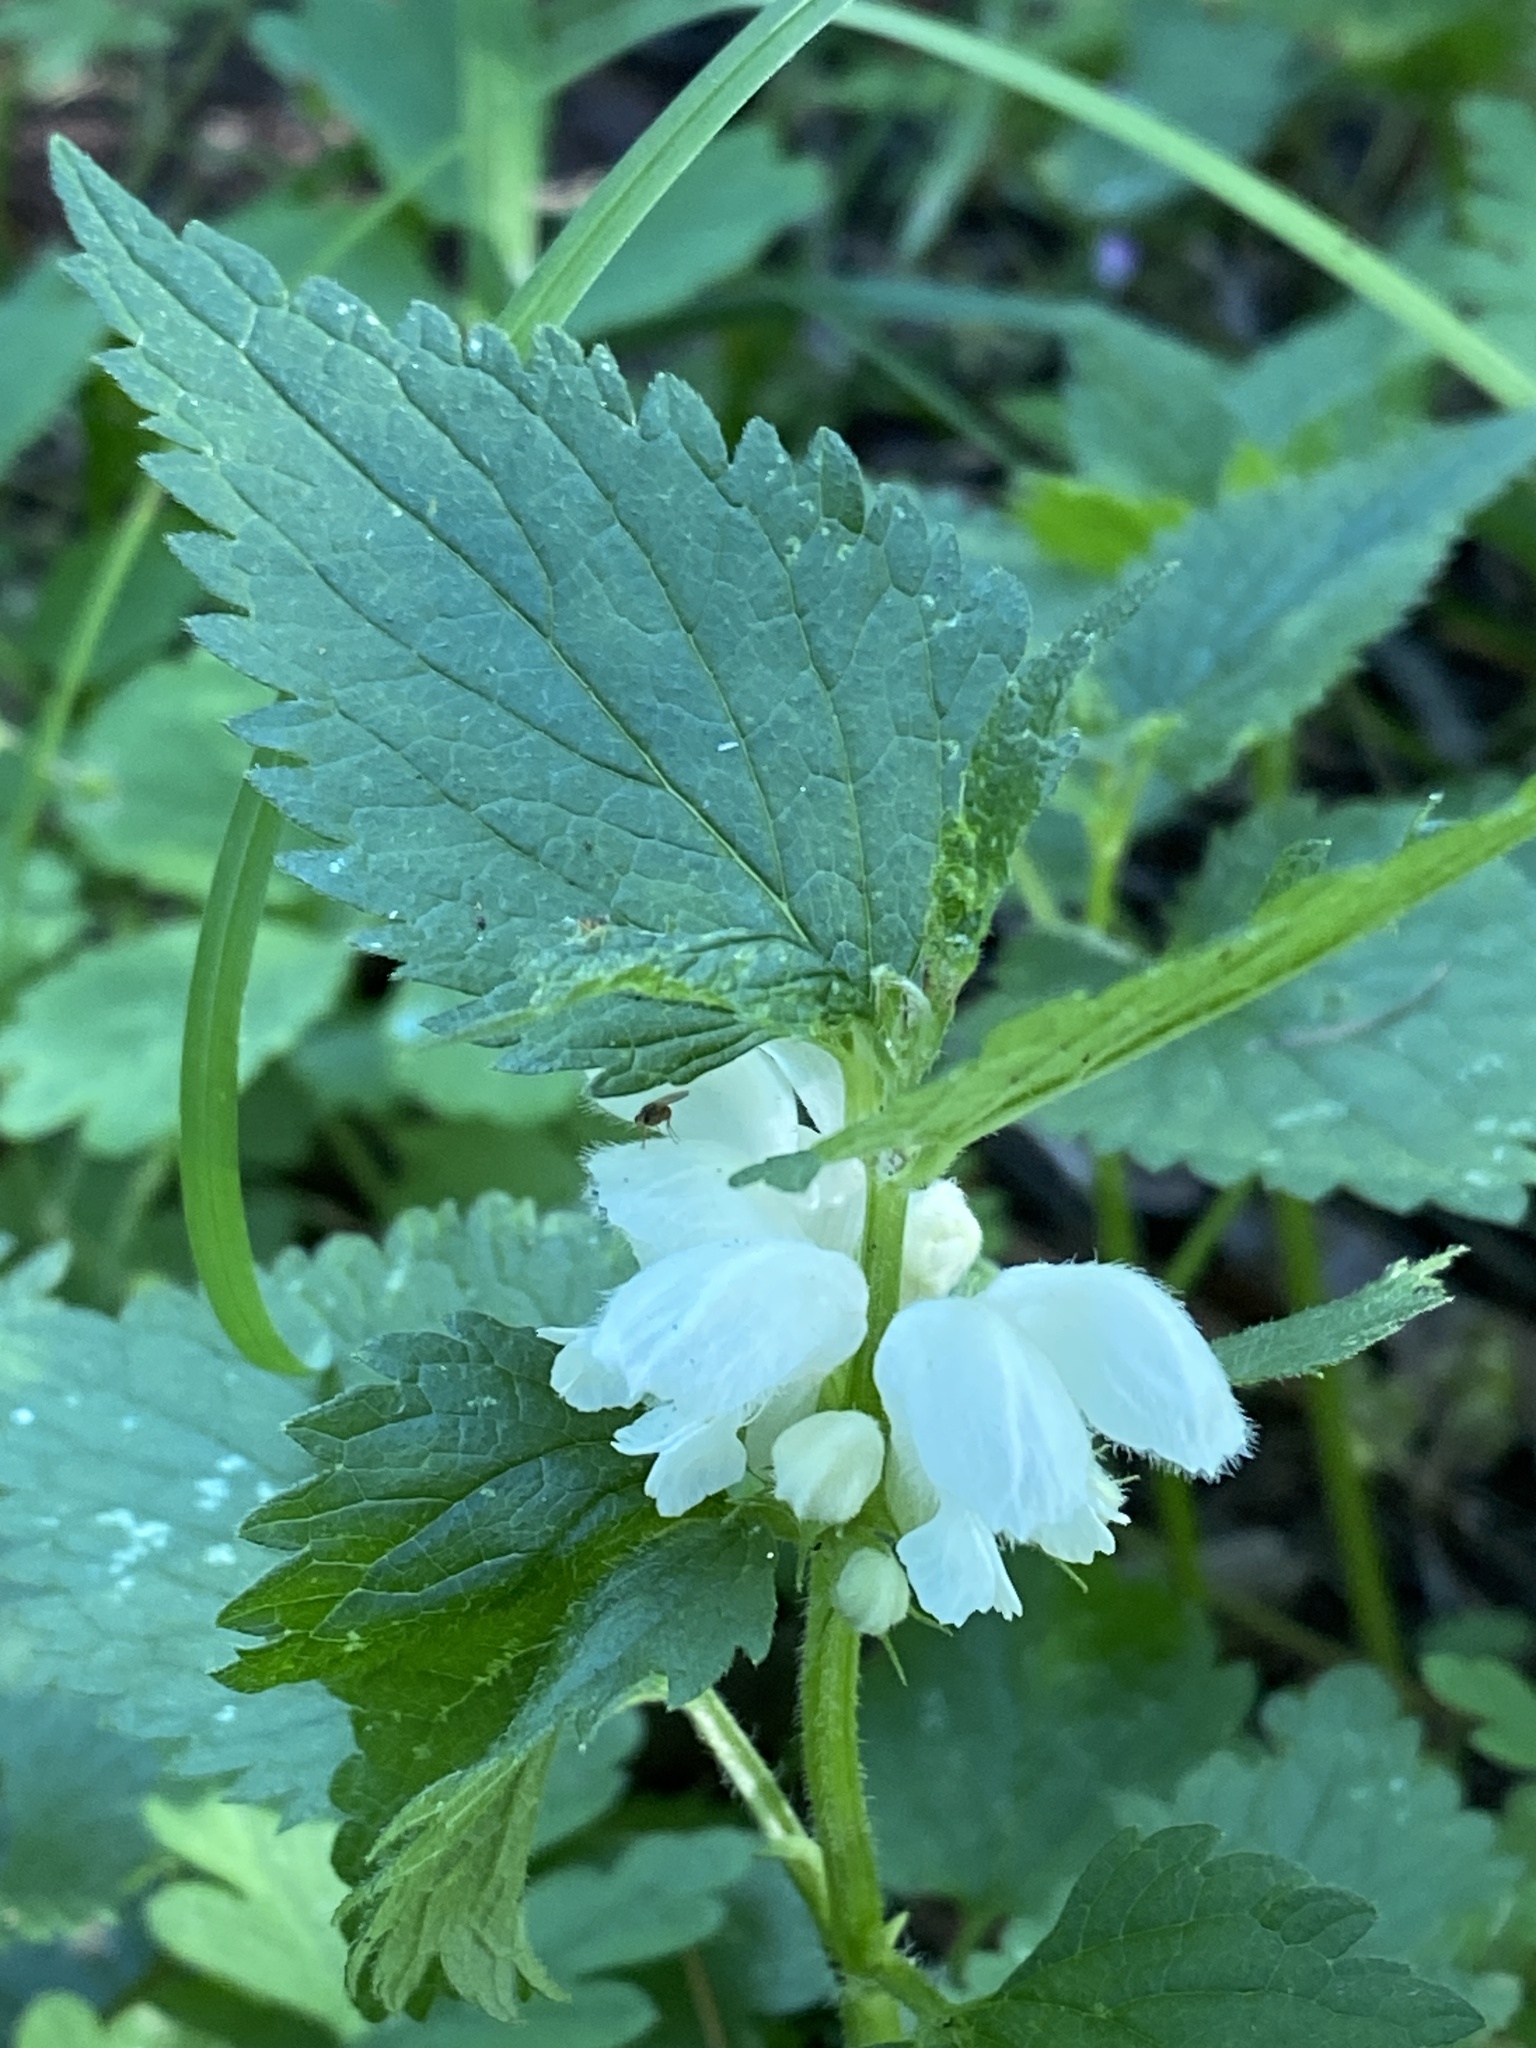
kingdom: Plantae
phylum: Tracheophyta
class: Magnoliopsida
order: Lamiales
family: Lamiaceae
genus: Lamium
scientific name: Lamium album
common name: White dead-nettle
